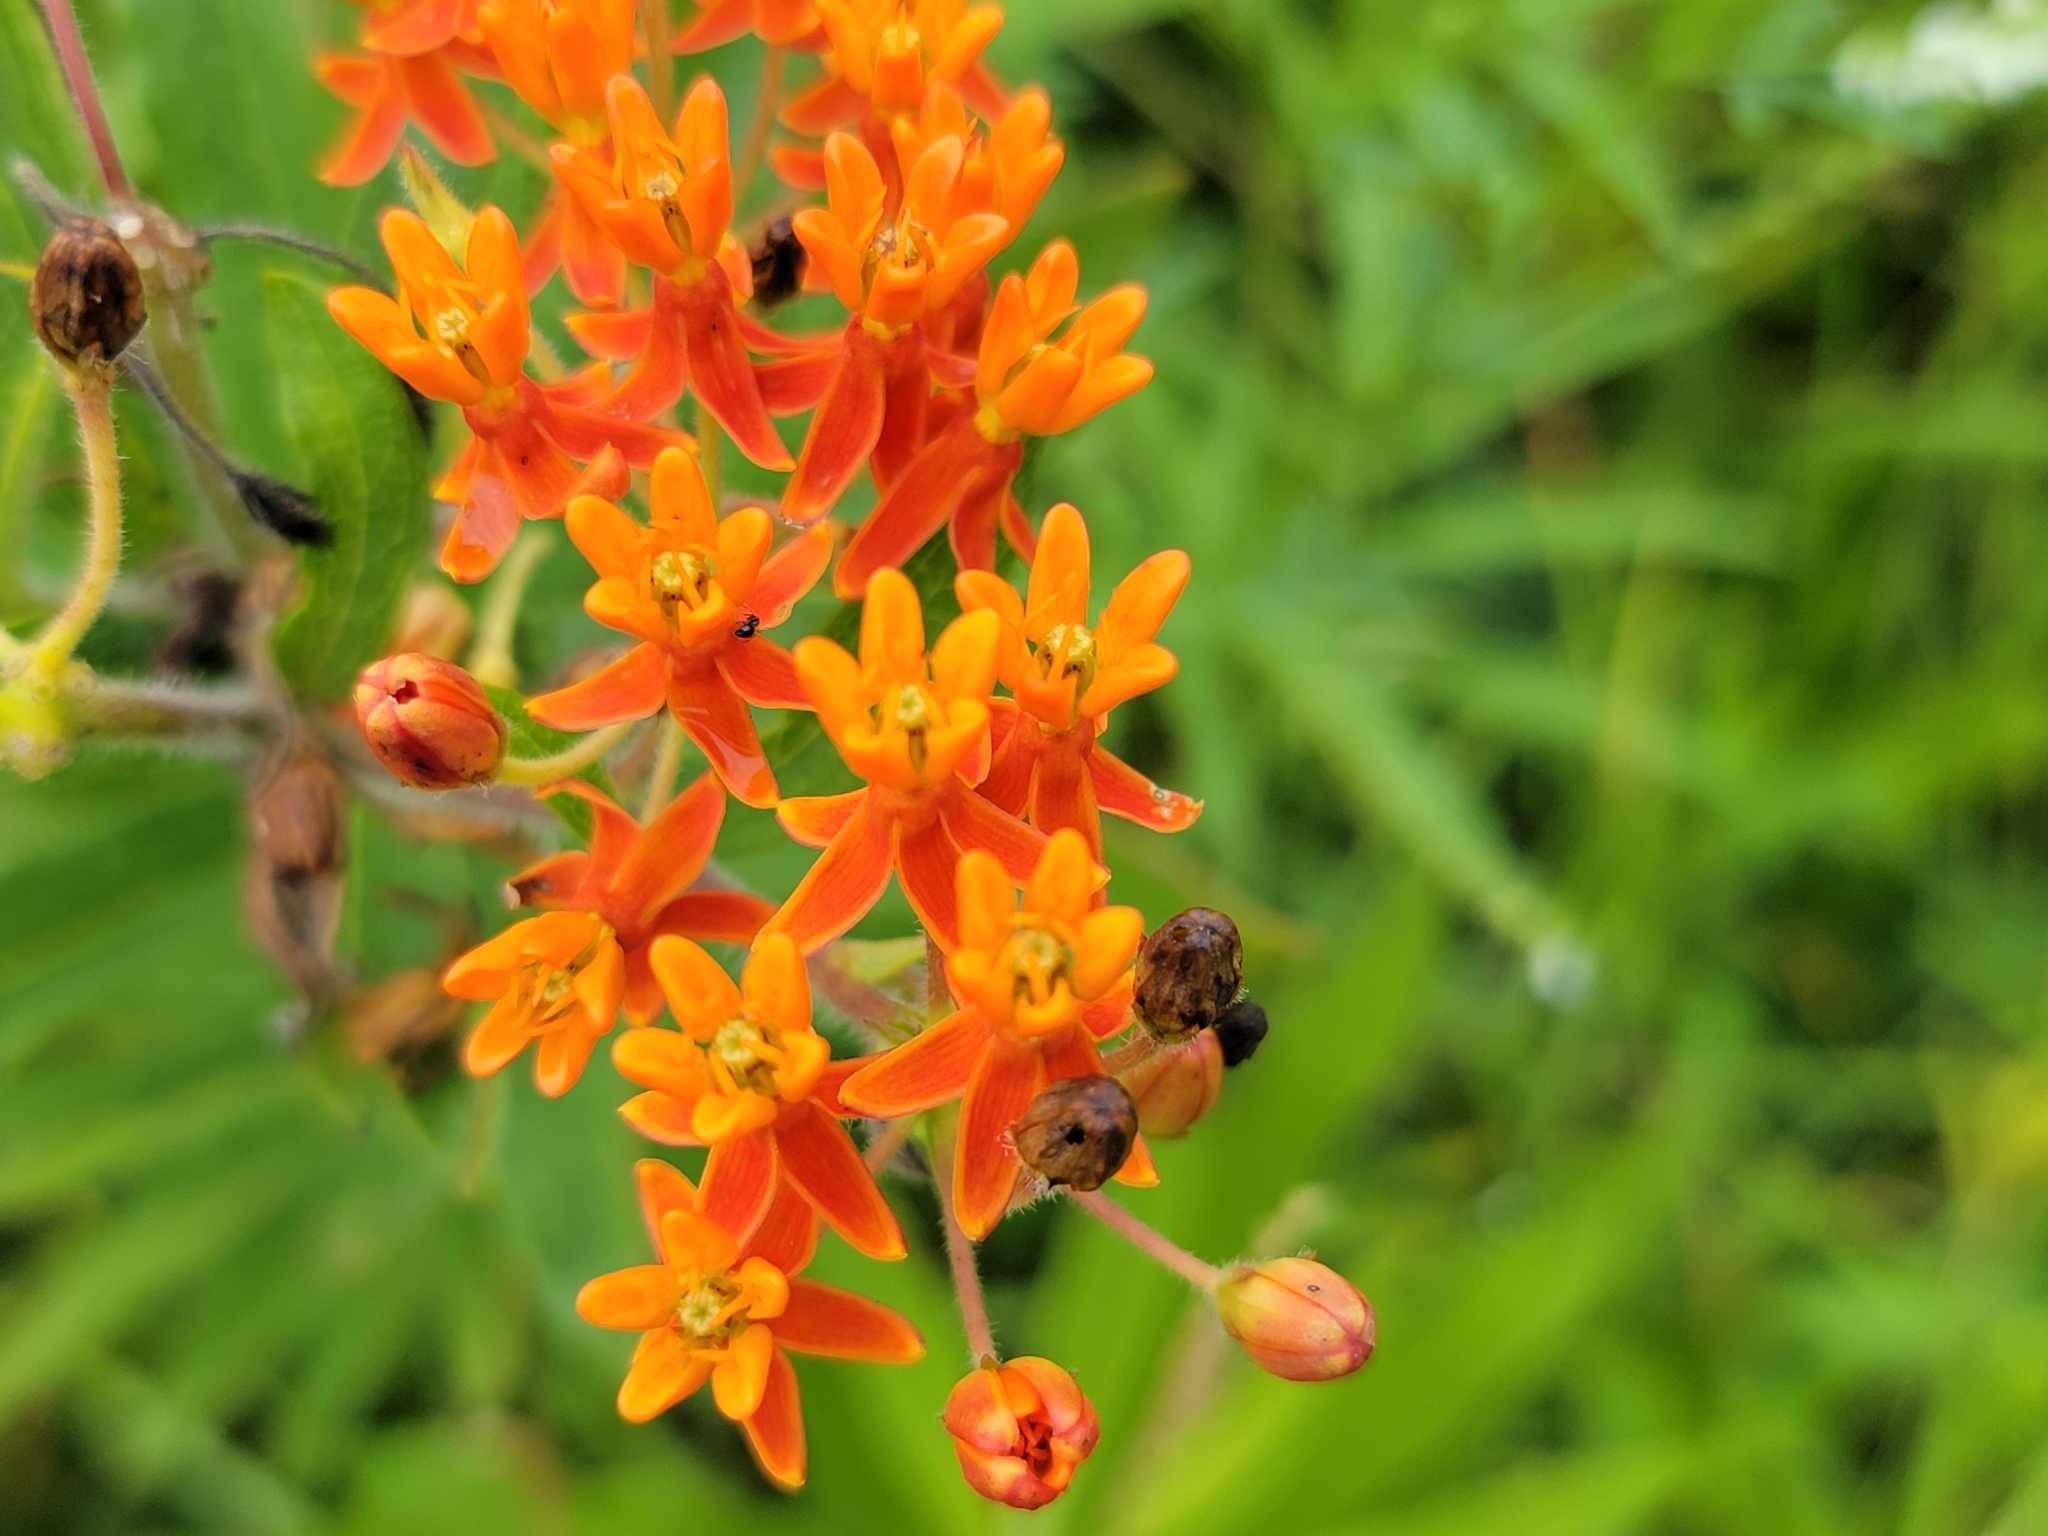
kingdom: Plantae
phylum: Tracheophyta
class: Magnoliopsida
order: Gentianales
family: Apocynaceae
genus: Asclepias
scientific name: Asclepias tuberosa
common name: Butterfly milkweed
